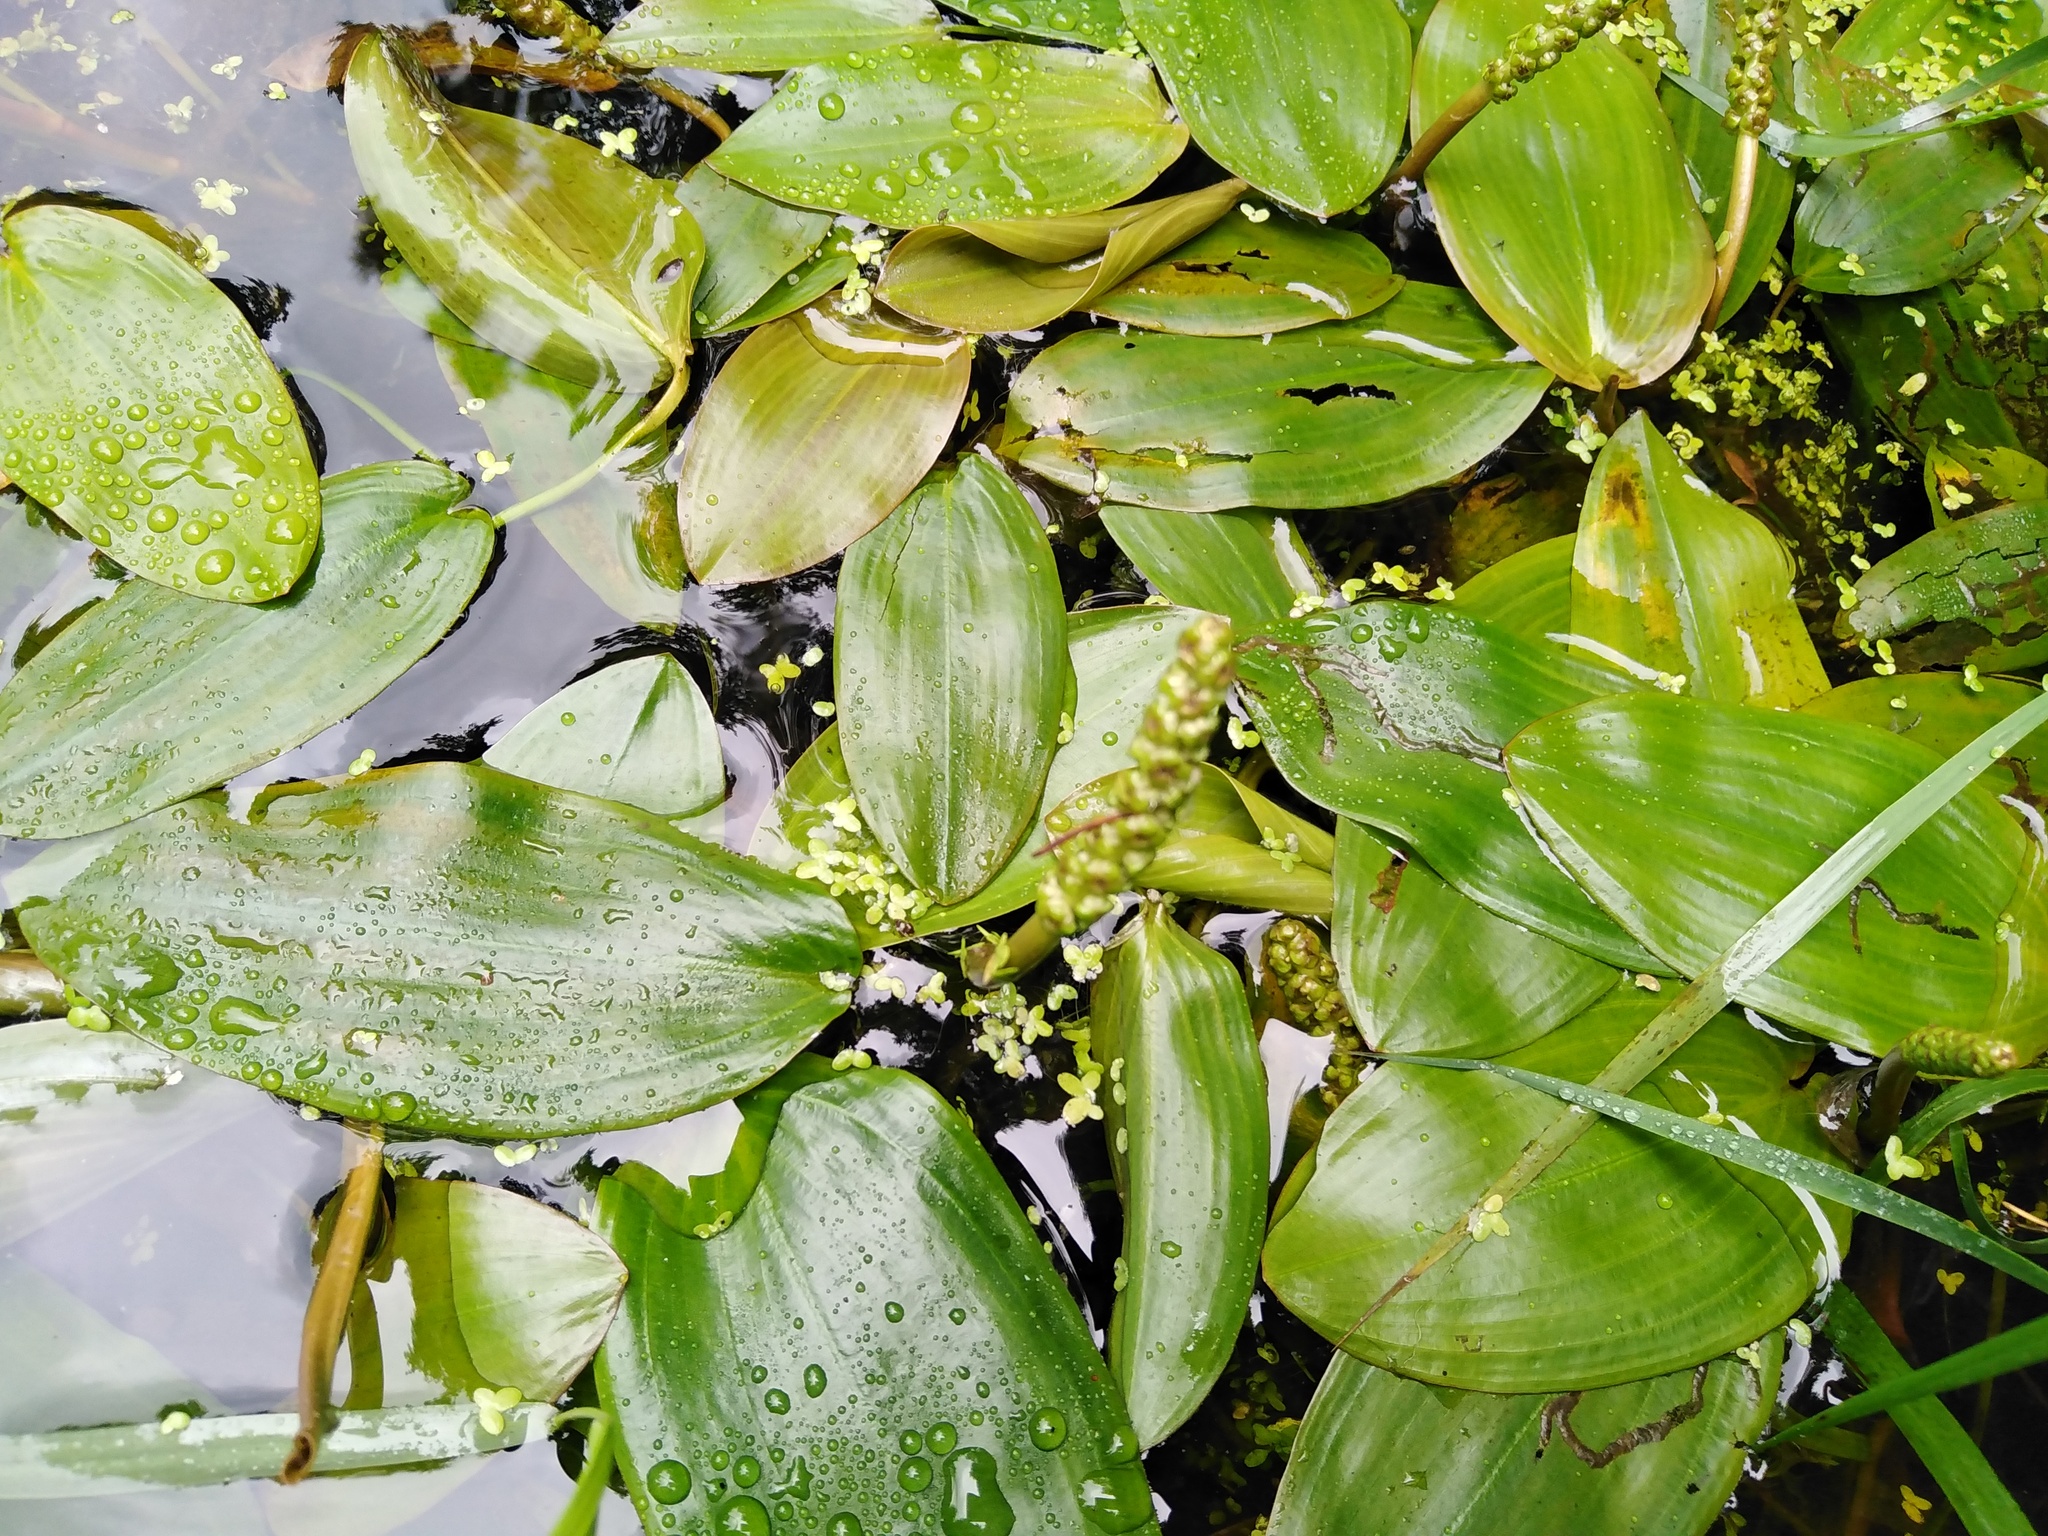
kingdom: Plantae
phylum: Tracheophyta
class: Liliopsida
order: Alismatales
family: Potamogetonaceae
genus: Potamogeton
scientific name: Potamogeton natans
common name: Broad-leaved pondweed
